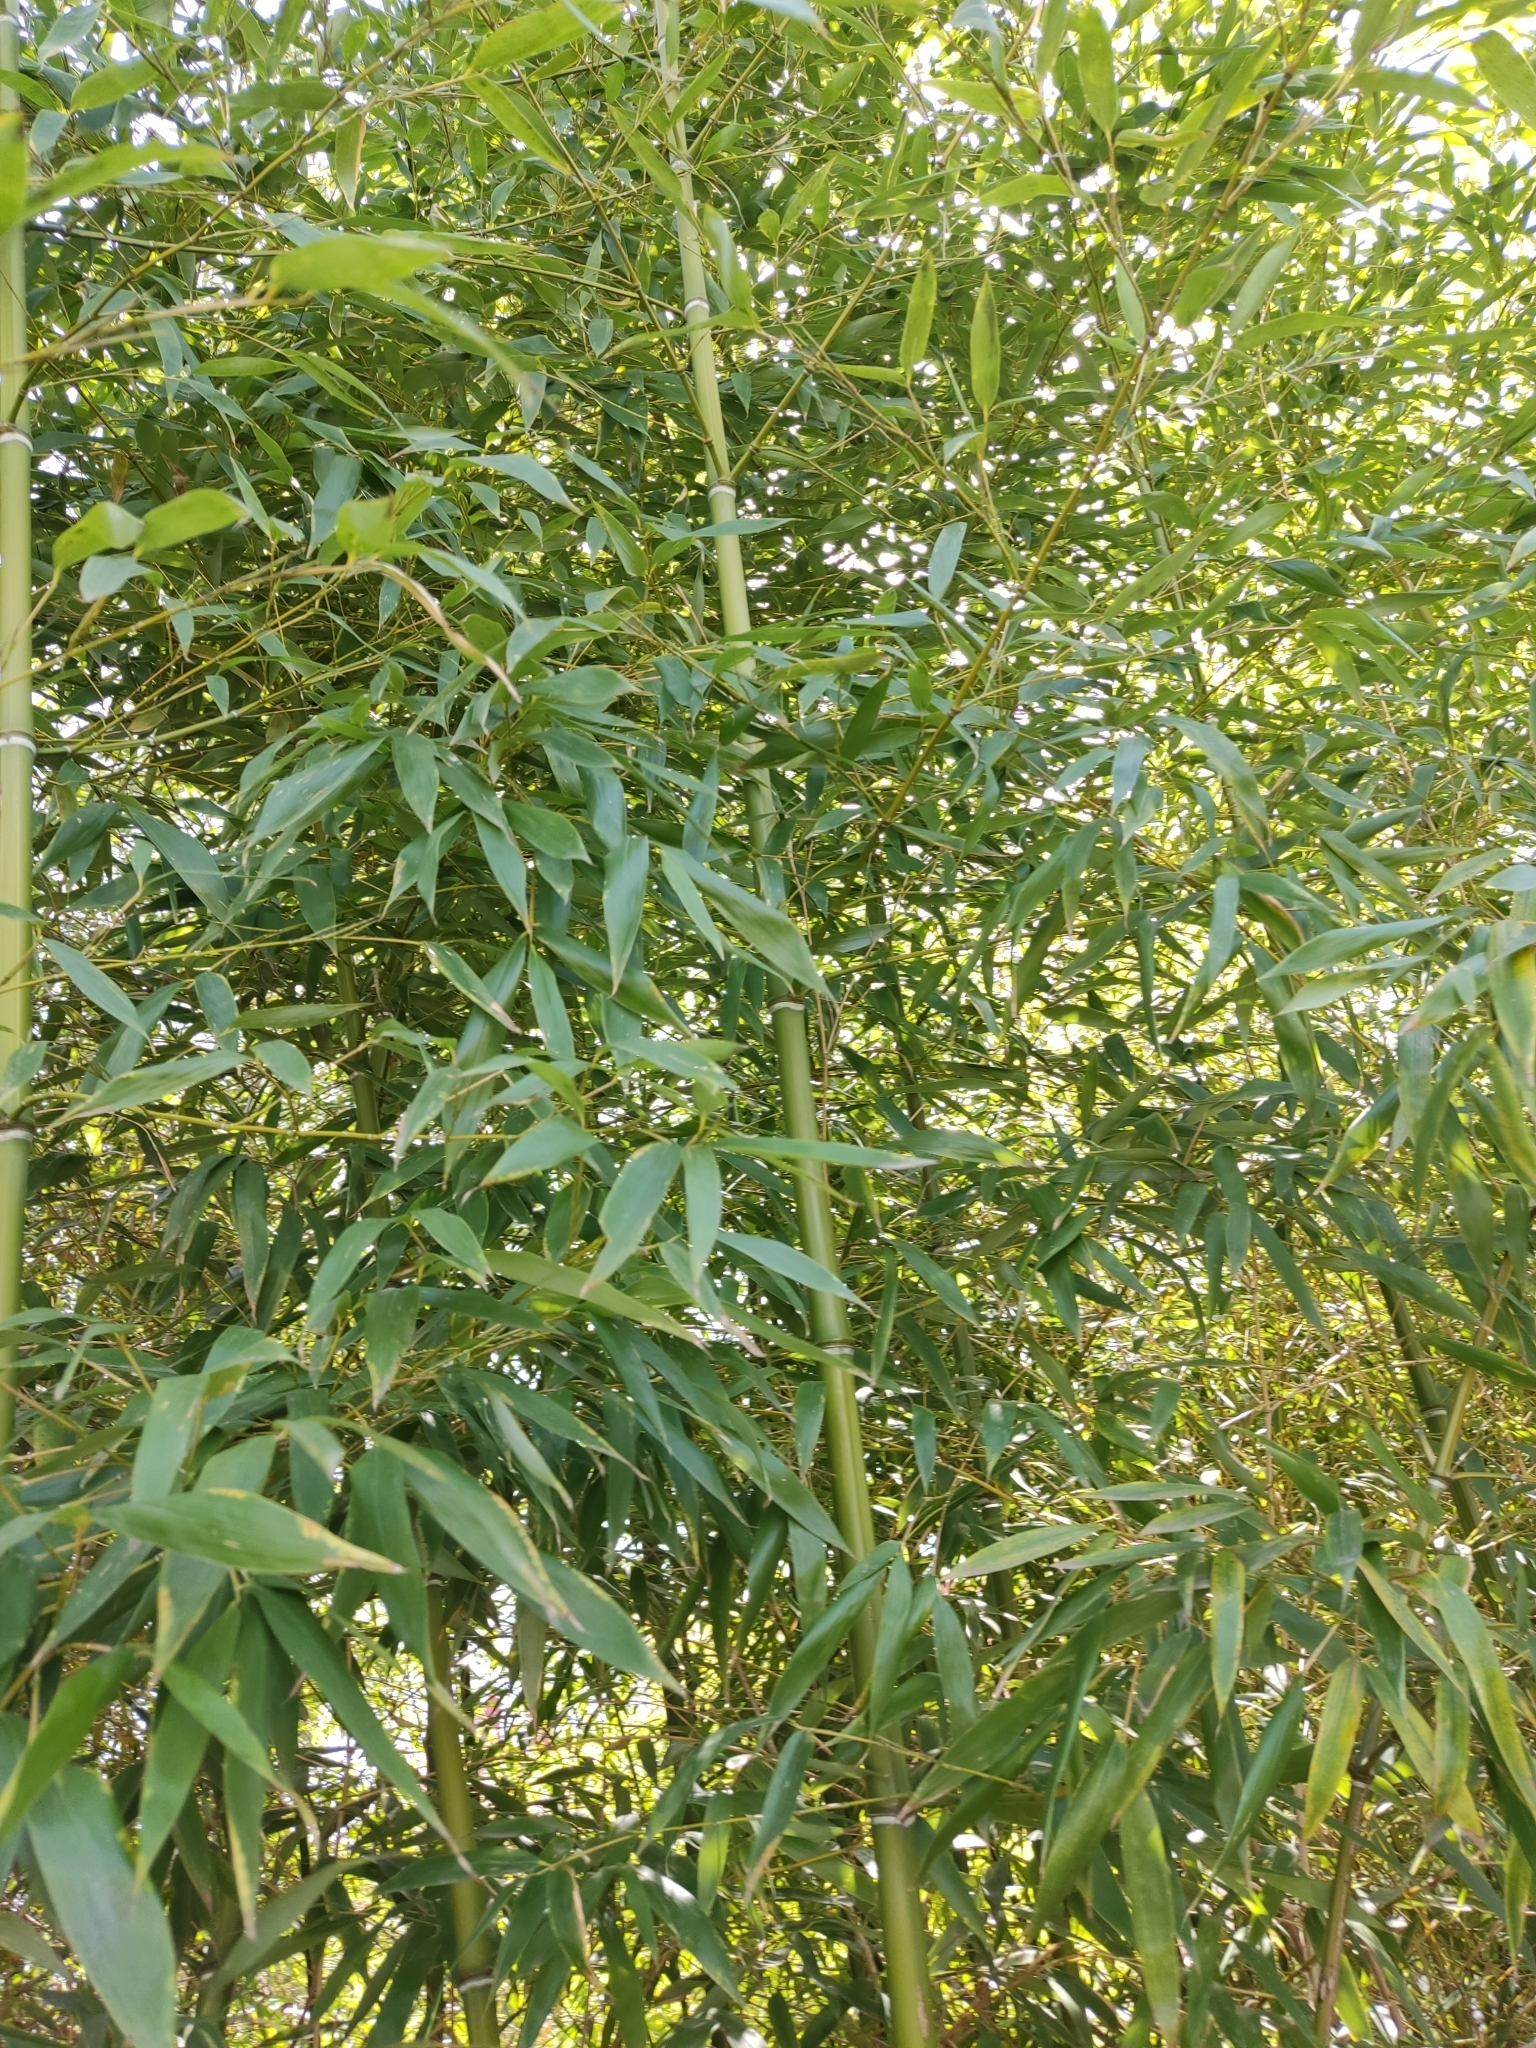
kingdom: Plantae
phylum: Tracheophyta
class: Liliopsida
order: Poales
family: Poaceae
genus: Phyllostachys
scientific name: Phyllostachys aurea
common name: Golden bamboo
